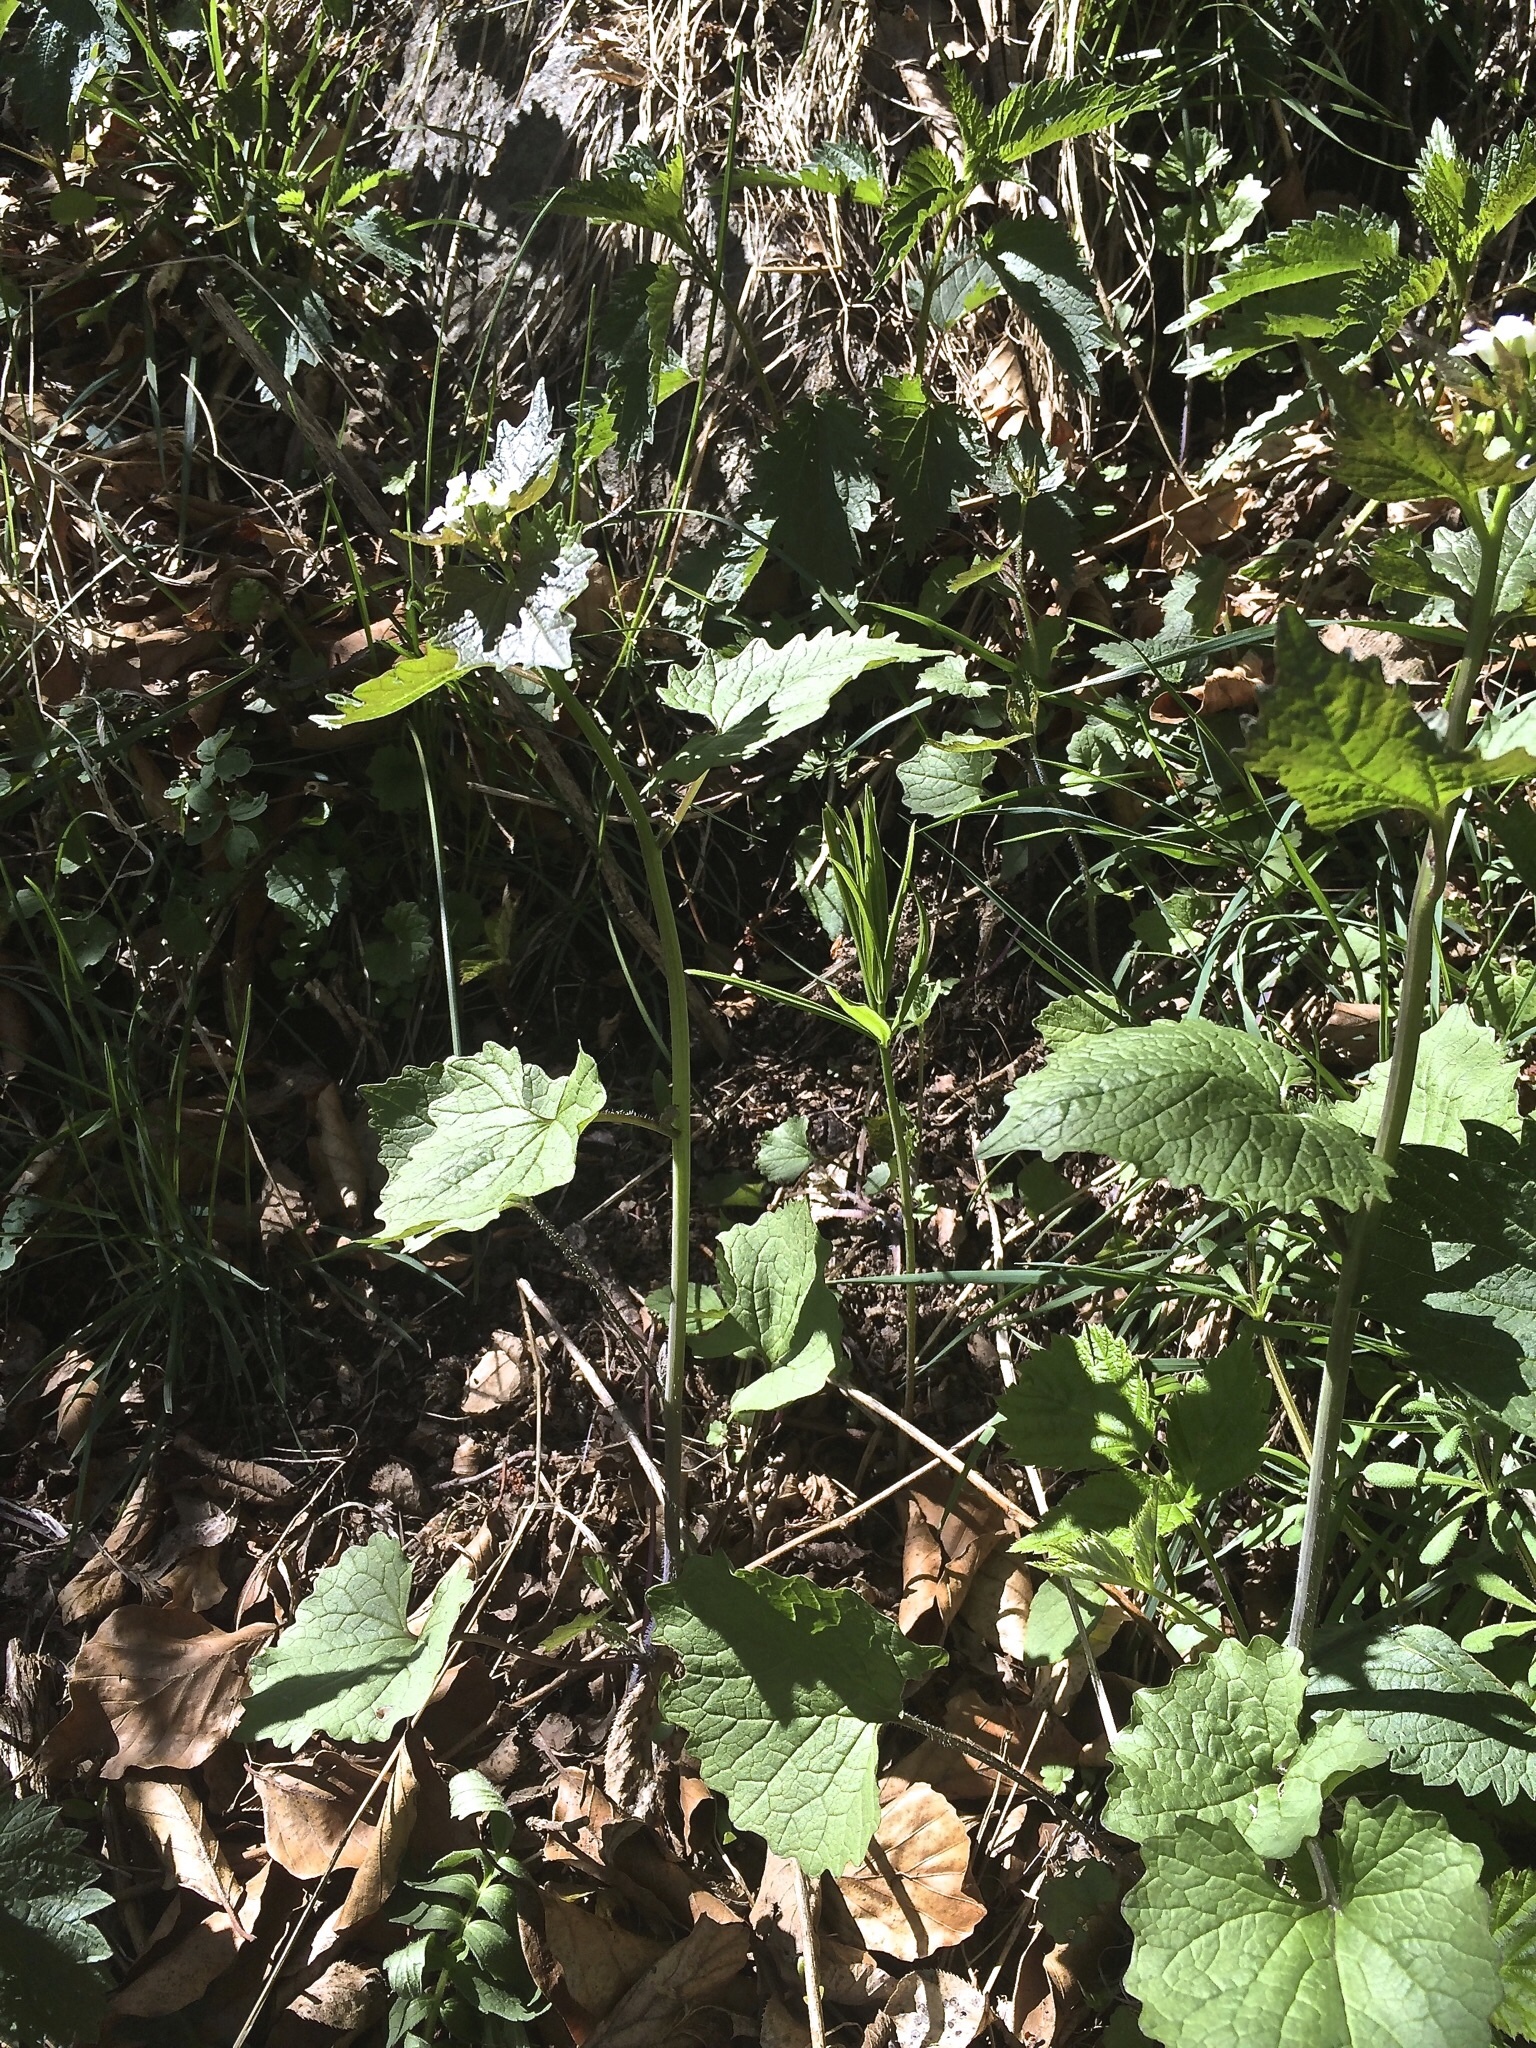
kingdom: Plantae
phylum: Tracheophyta
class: Magnoliopsida
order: Brassicales
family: Brassicaceae
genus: Alliaria
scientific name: Alliaria petiolata
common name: Garlic mustard
